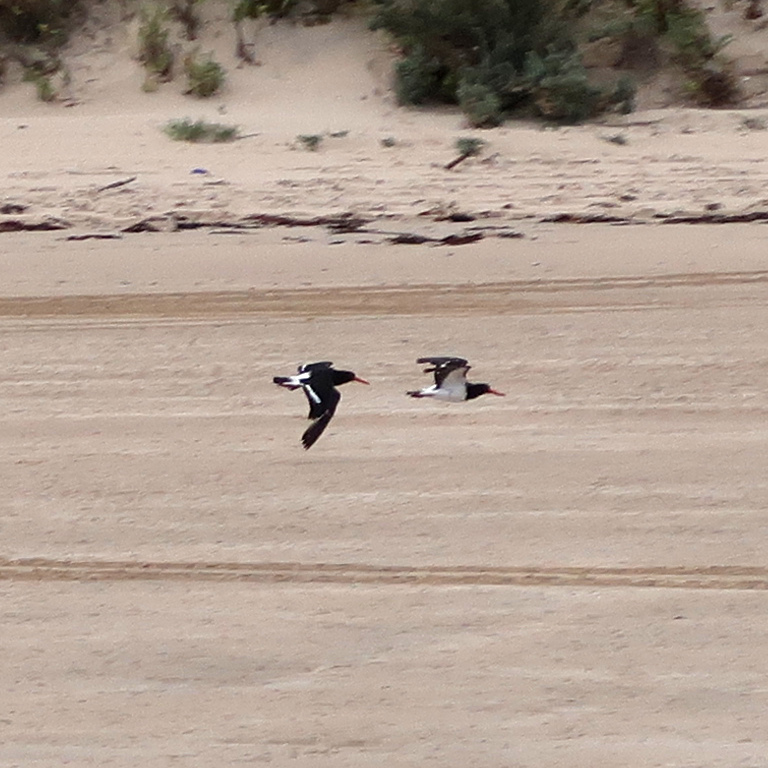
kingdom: Animalia
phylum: Chordata
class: Aves
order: Charadriiformes
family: Haematopodidae
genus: Haematopus
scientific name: Haematopus longirostris
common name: Pied oystercatcher
